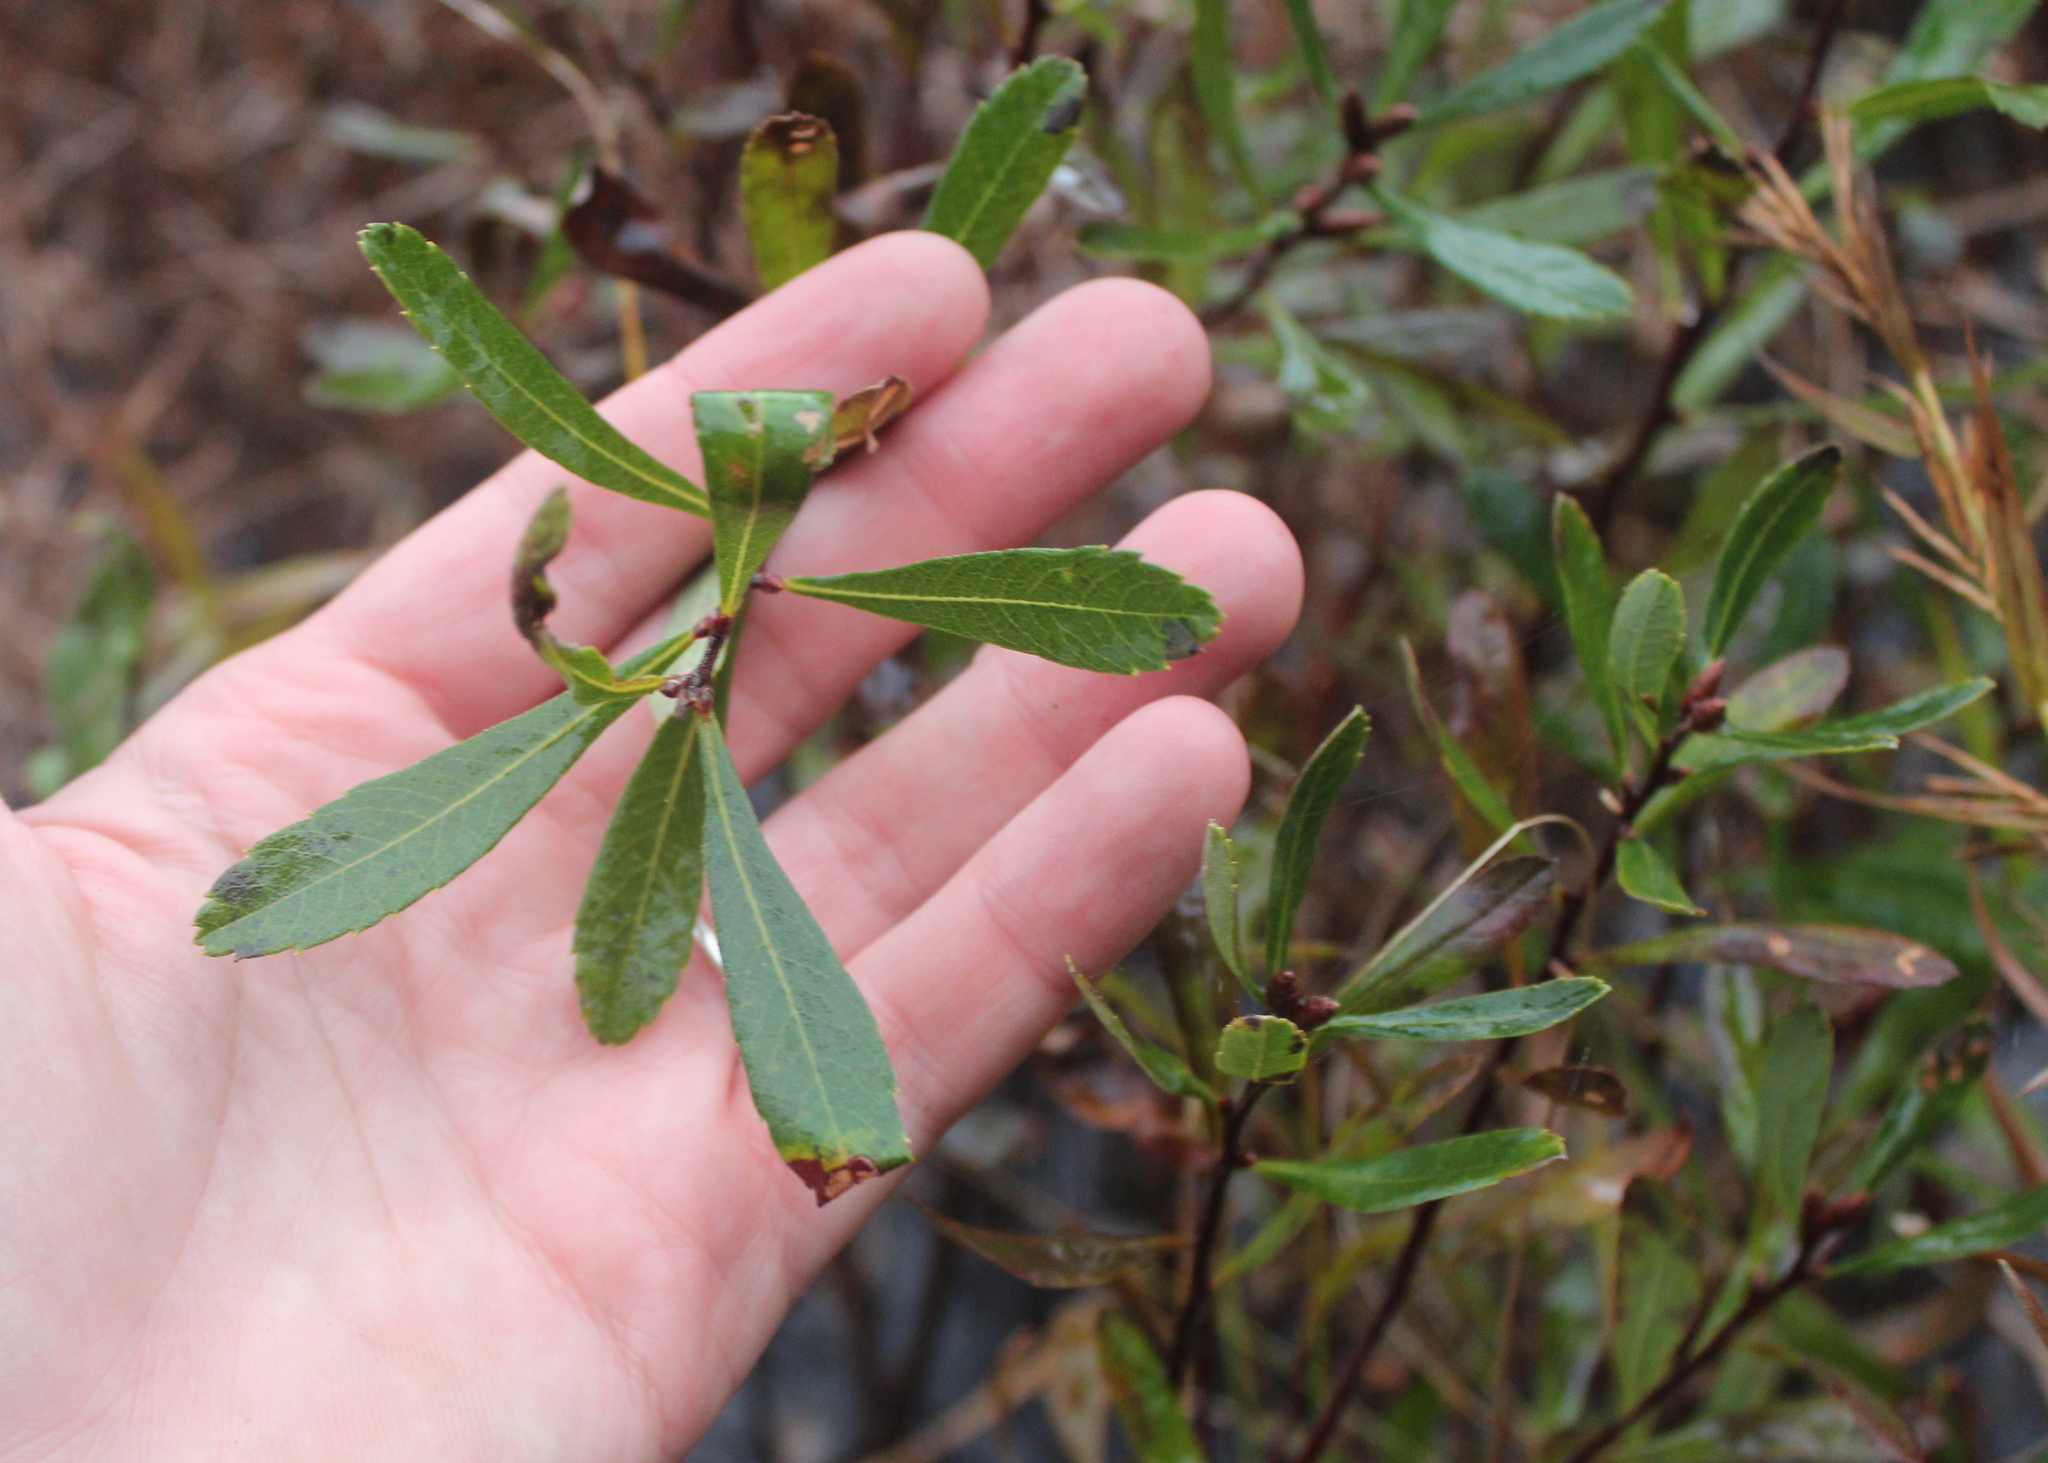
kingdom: Plantae
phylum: Tracheophyta
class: Magnoliopsida
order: Fagales
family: Myricaceae
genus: Myrica
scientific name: Myrica gale
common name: Sweet gale
